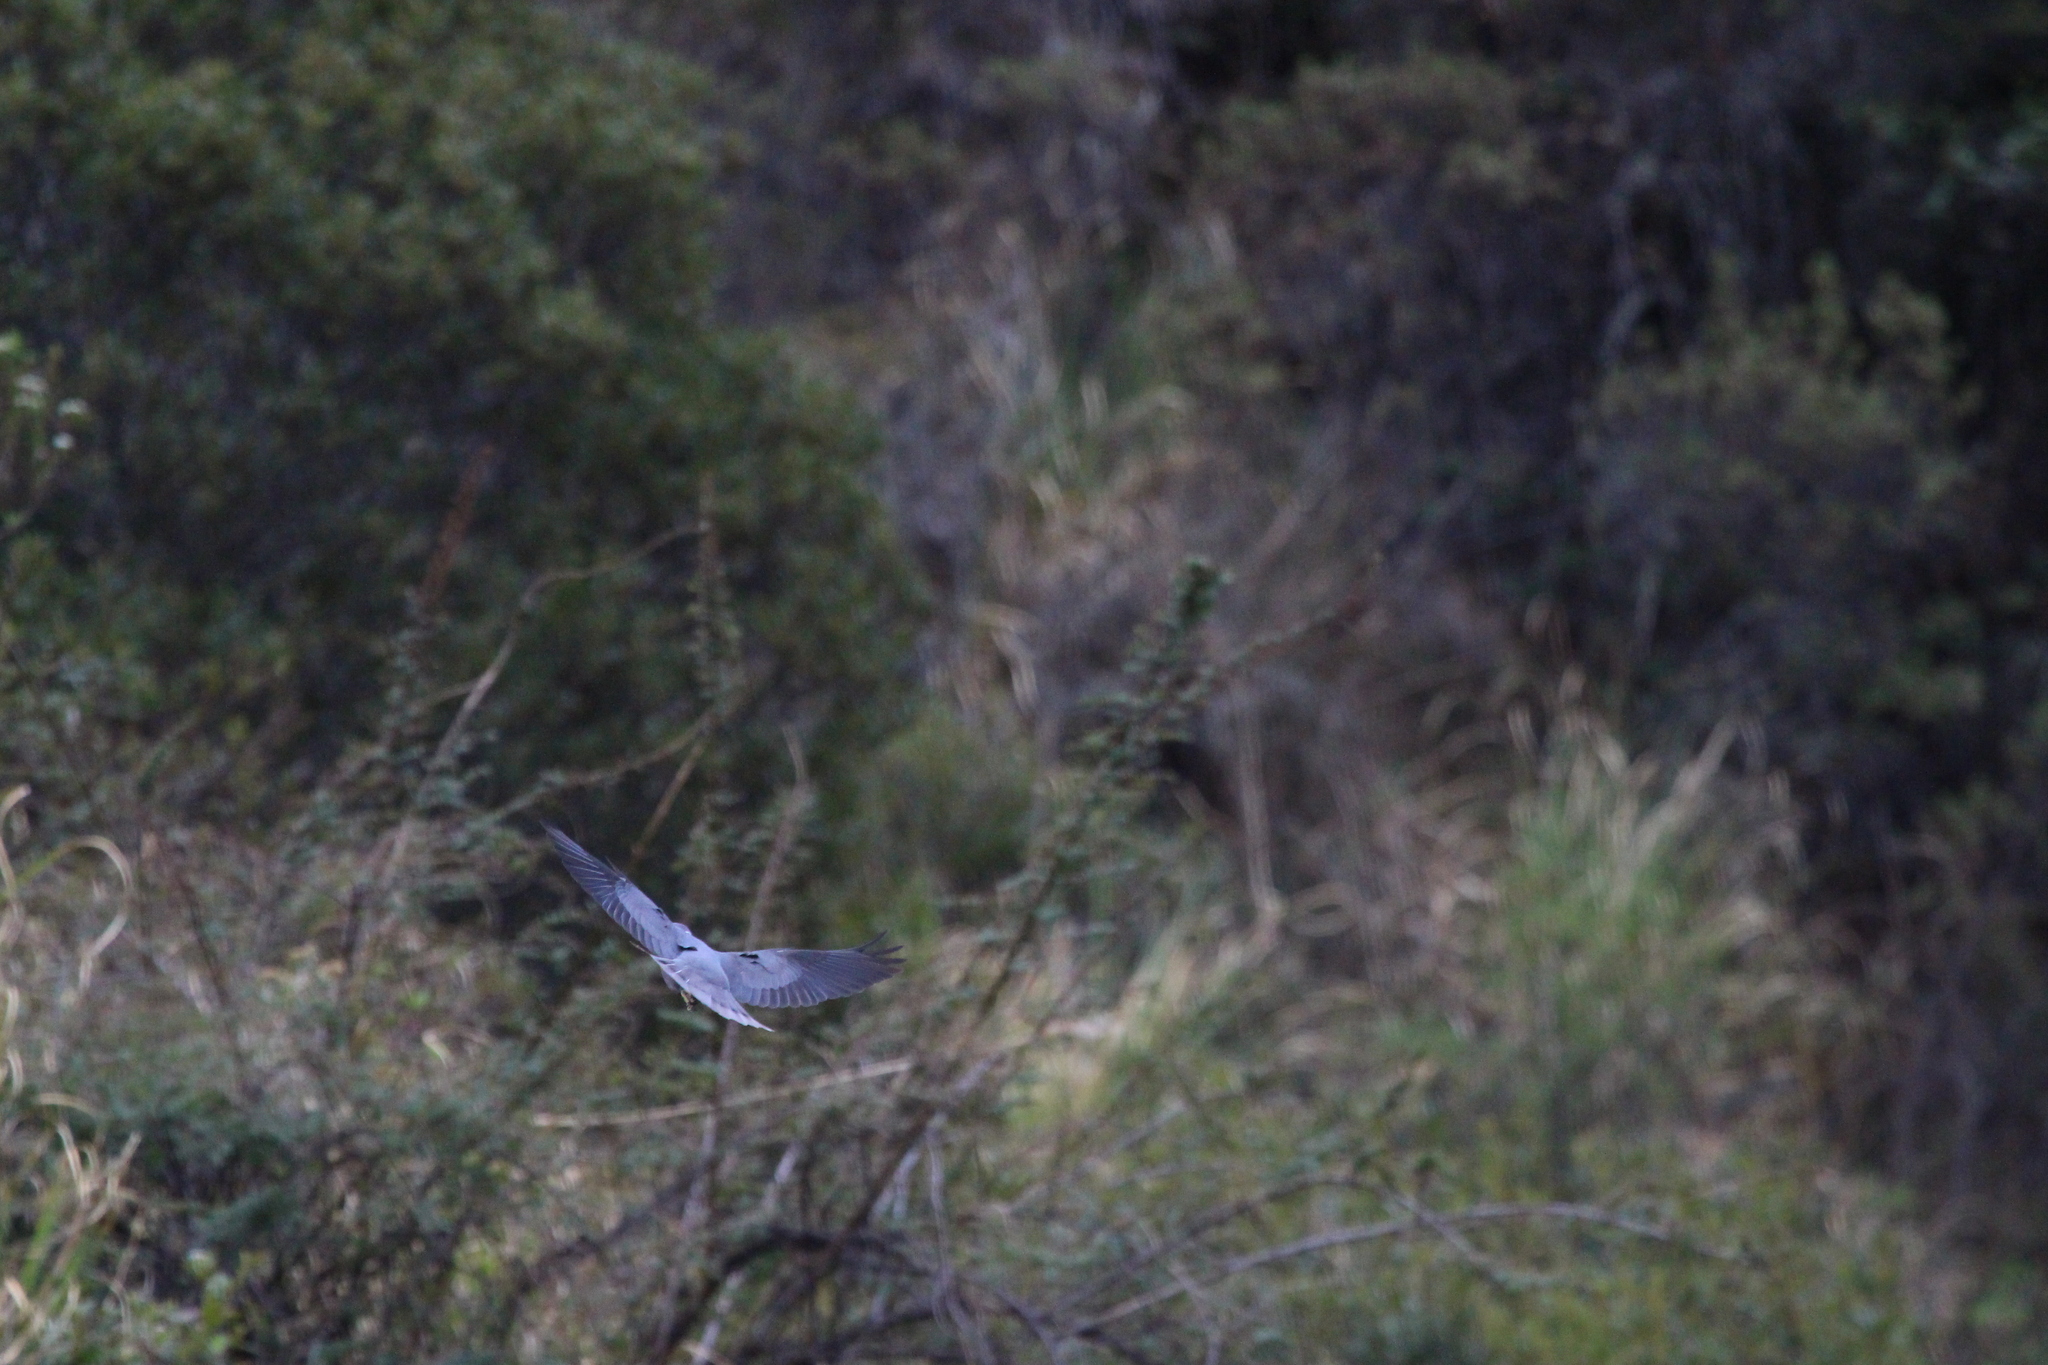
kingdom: Animalia
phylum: Chordata
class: Aves
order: Columbiformes
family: Columbidae
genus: Patagioenas
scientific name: Patagioenas fasciata
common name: Band-tailed pigeon
